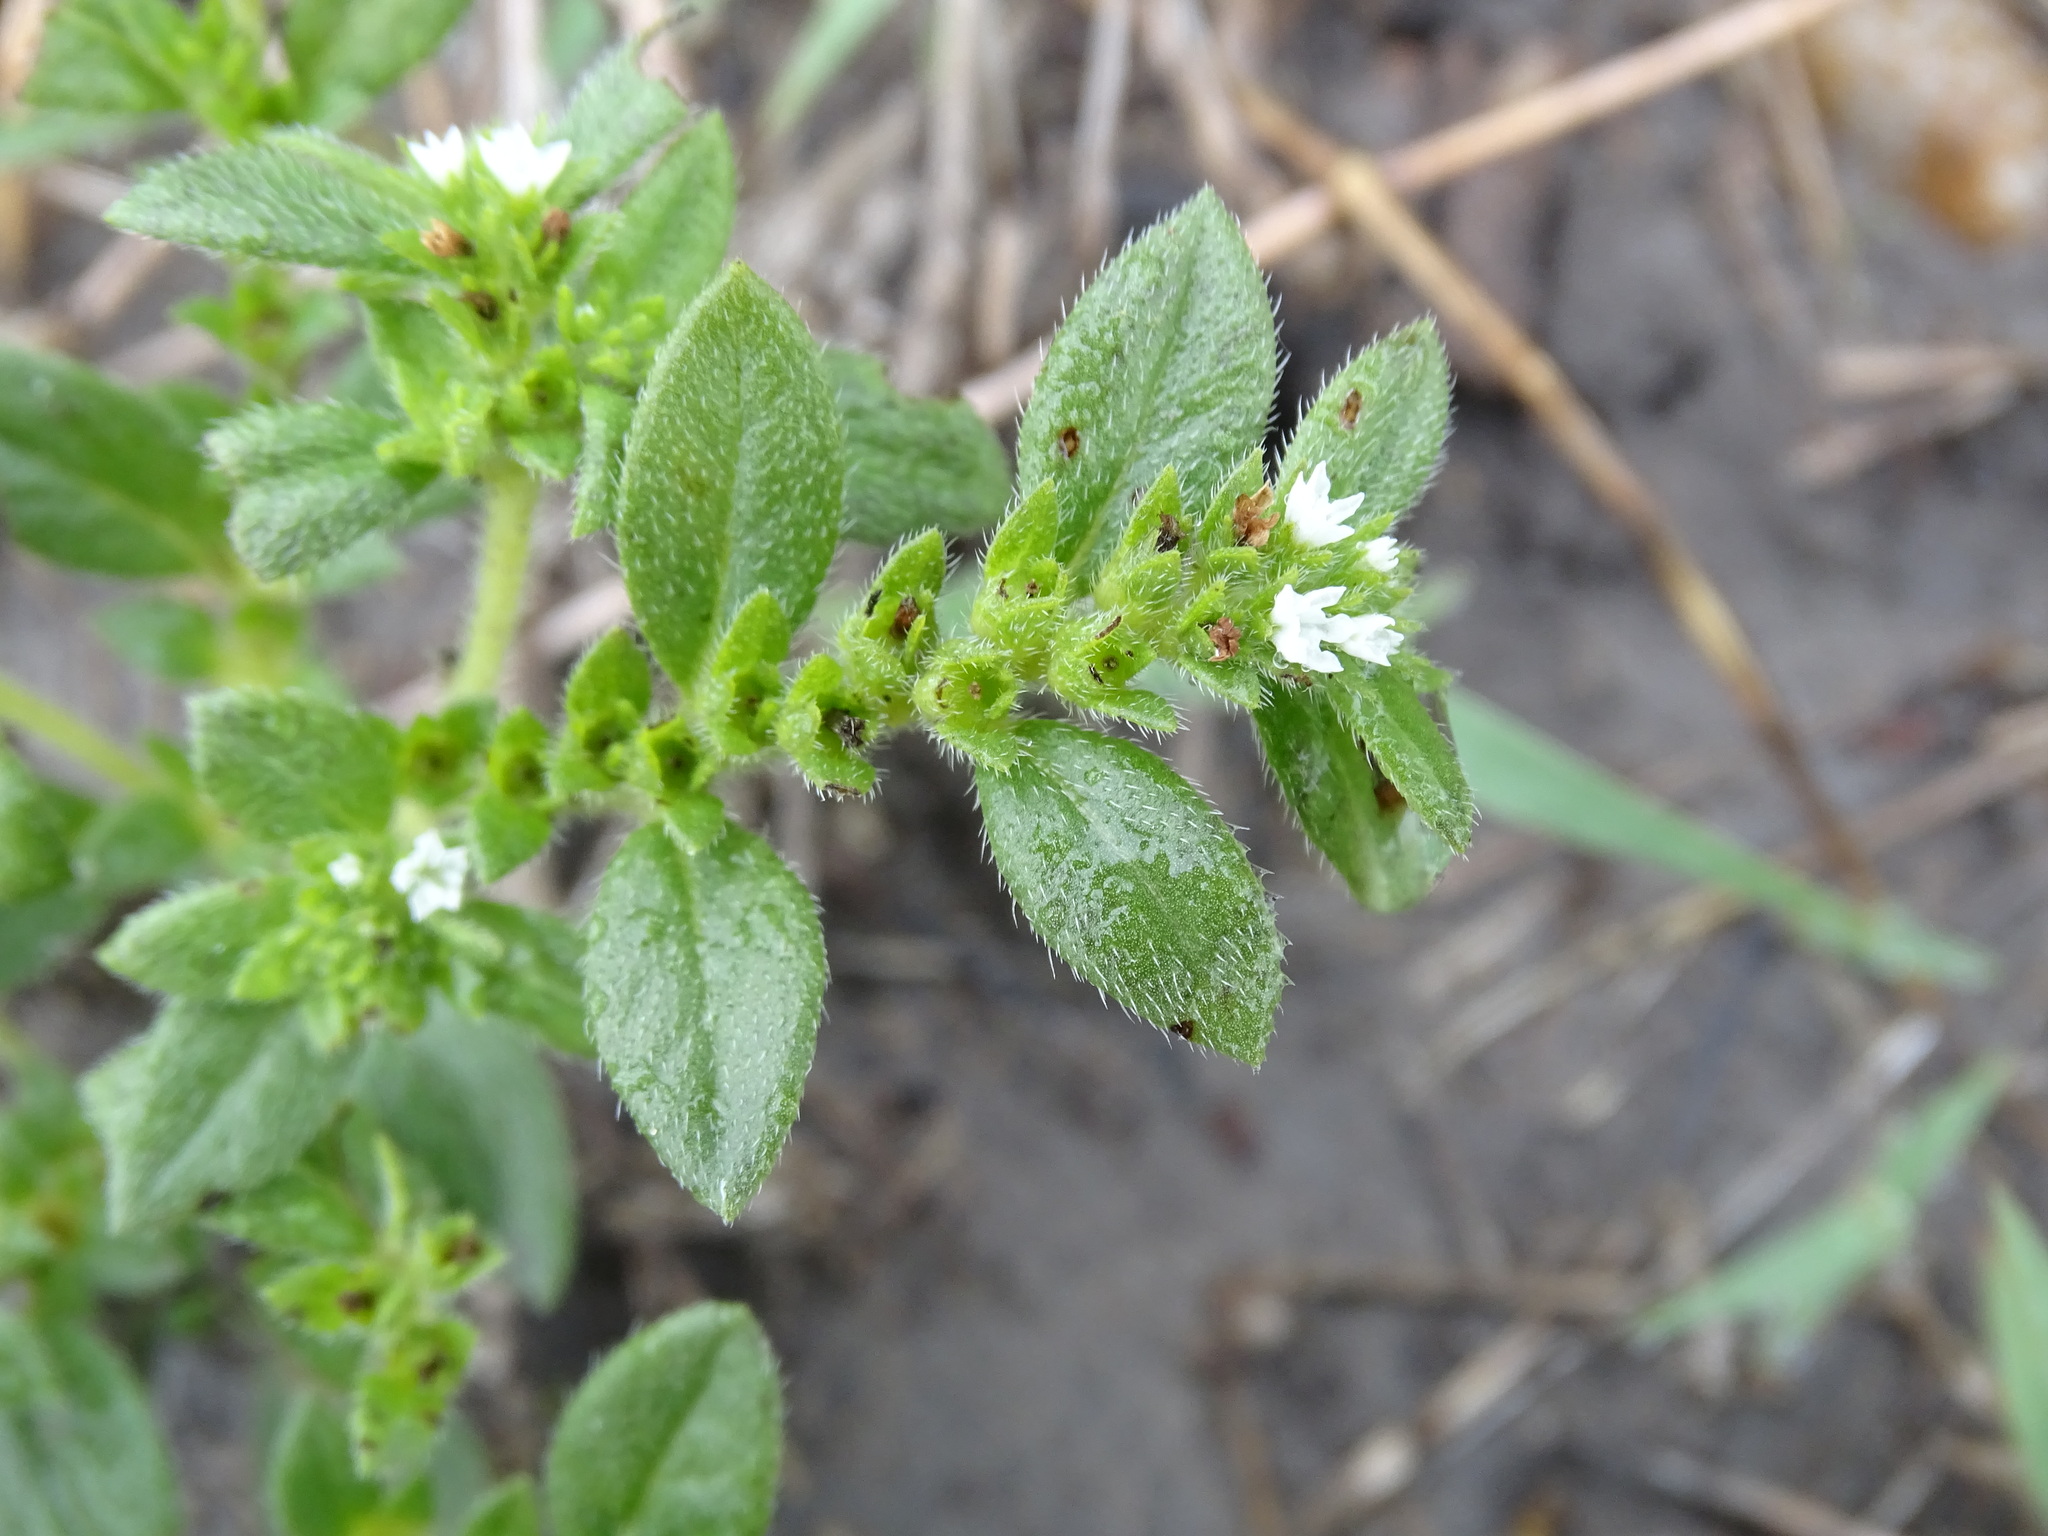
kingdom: Plantae
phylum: Tracheophyta
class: Magnoliopsida
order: Boraginales
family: Heliotropiaceae
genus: Euploca
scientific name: Euploca pringlei
